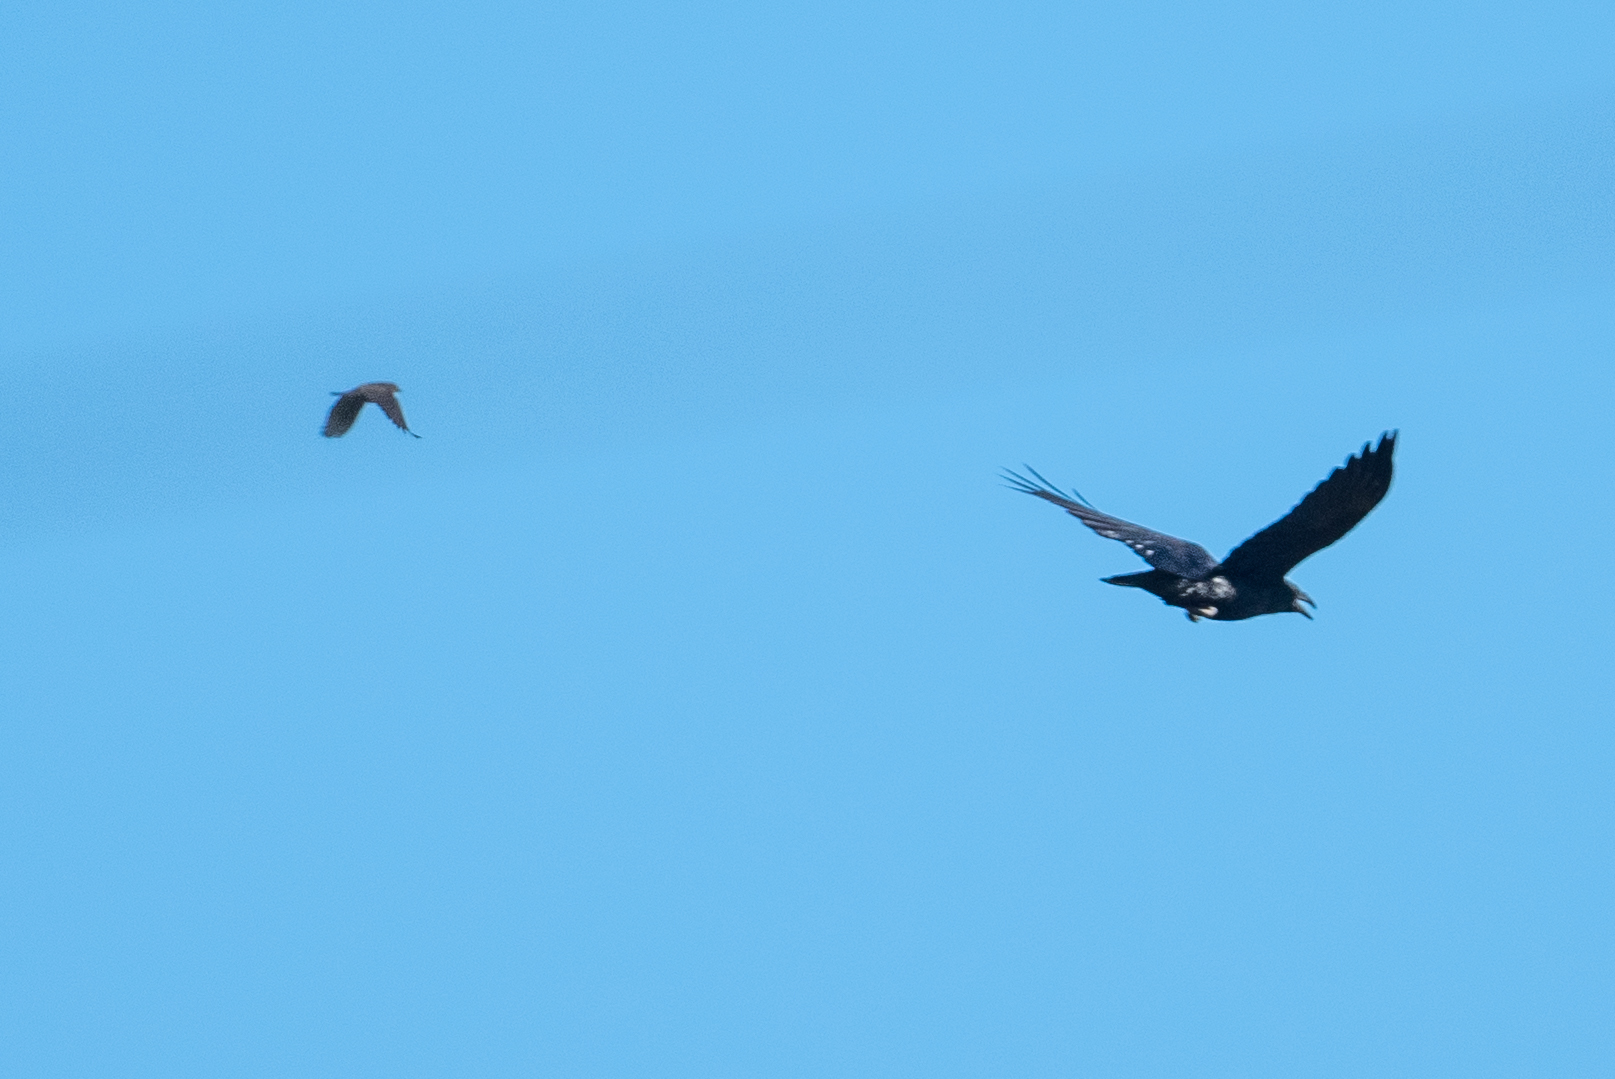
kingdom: Animalia
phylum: Chordata
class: Aves
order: Passeriformes
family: Corvidae
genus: Corvus
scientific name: Corvus corax
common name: Common raven
